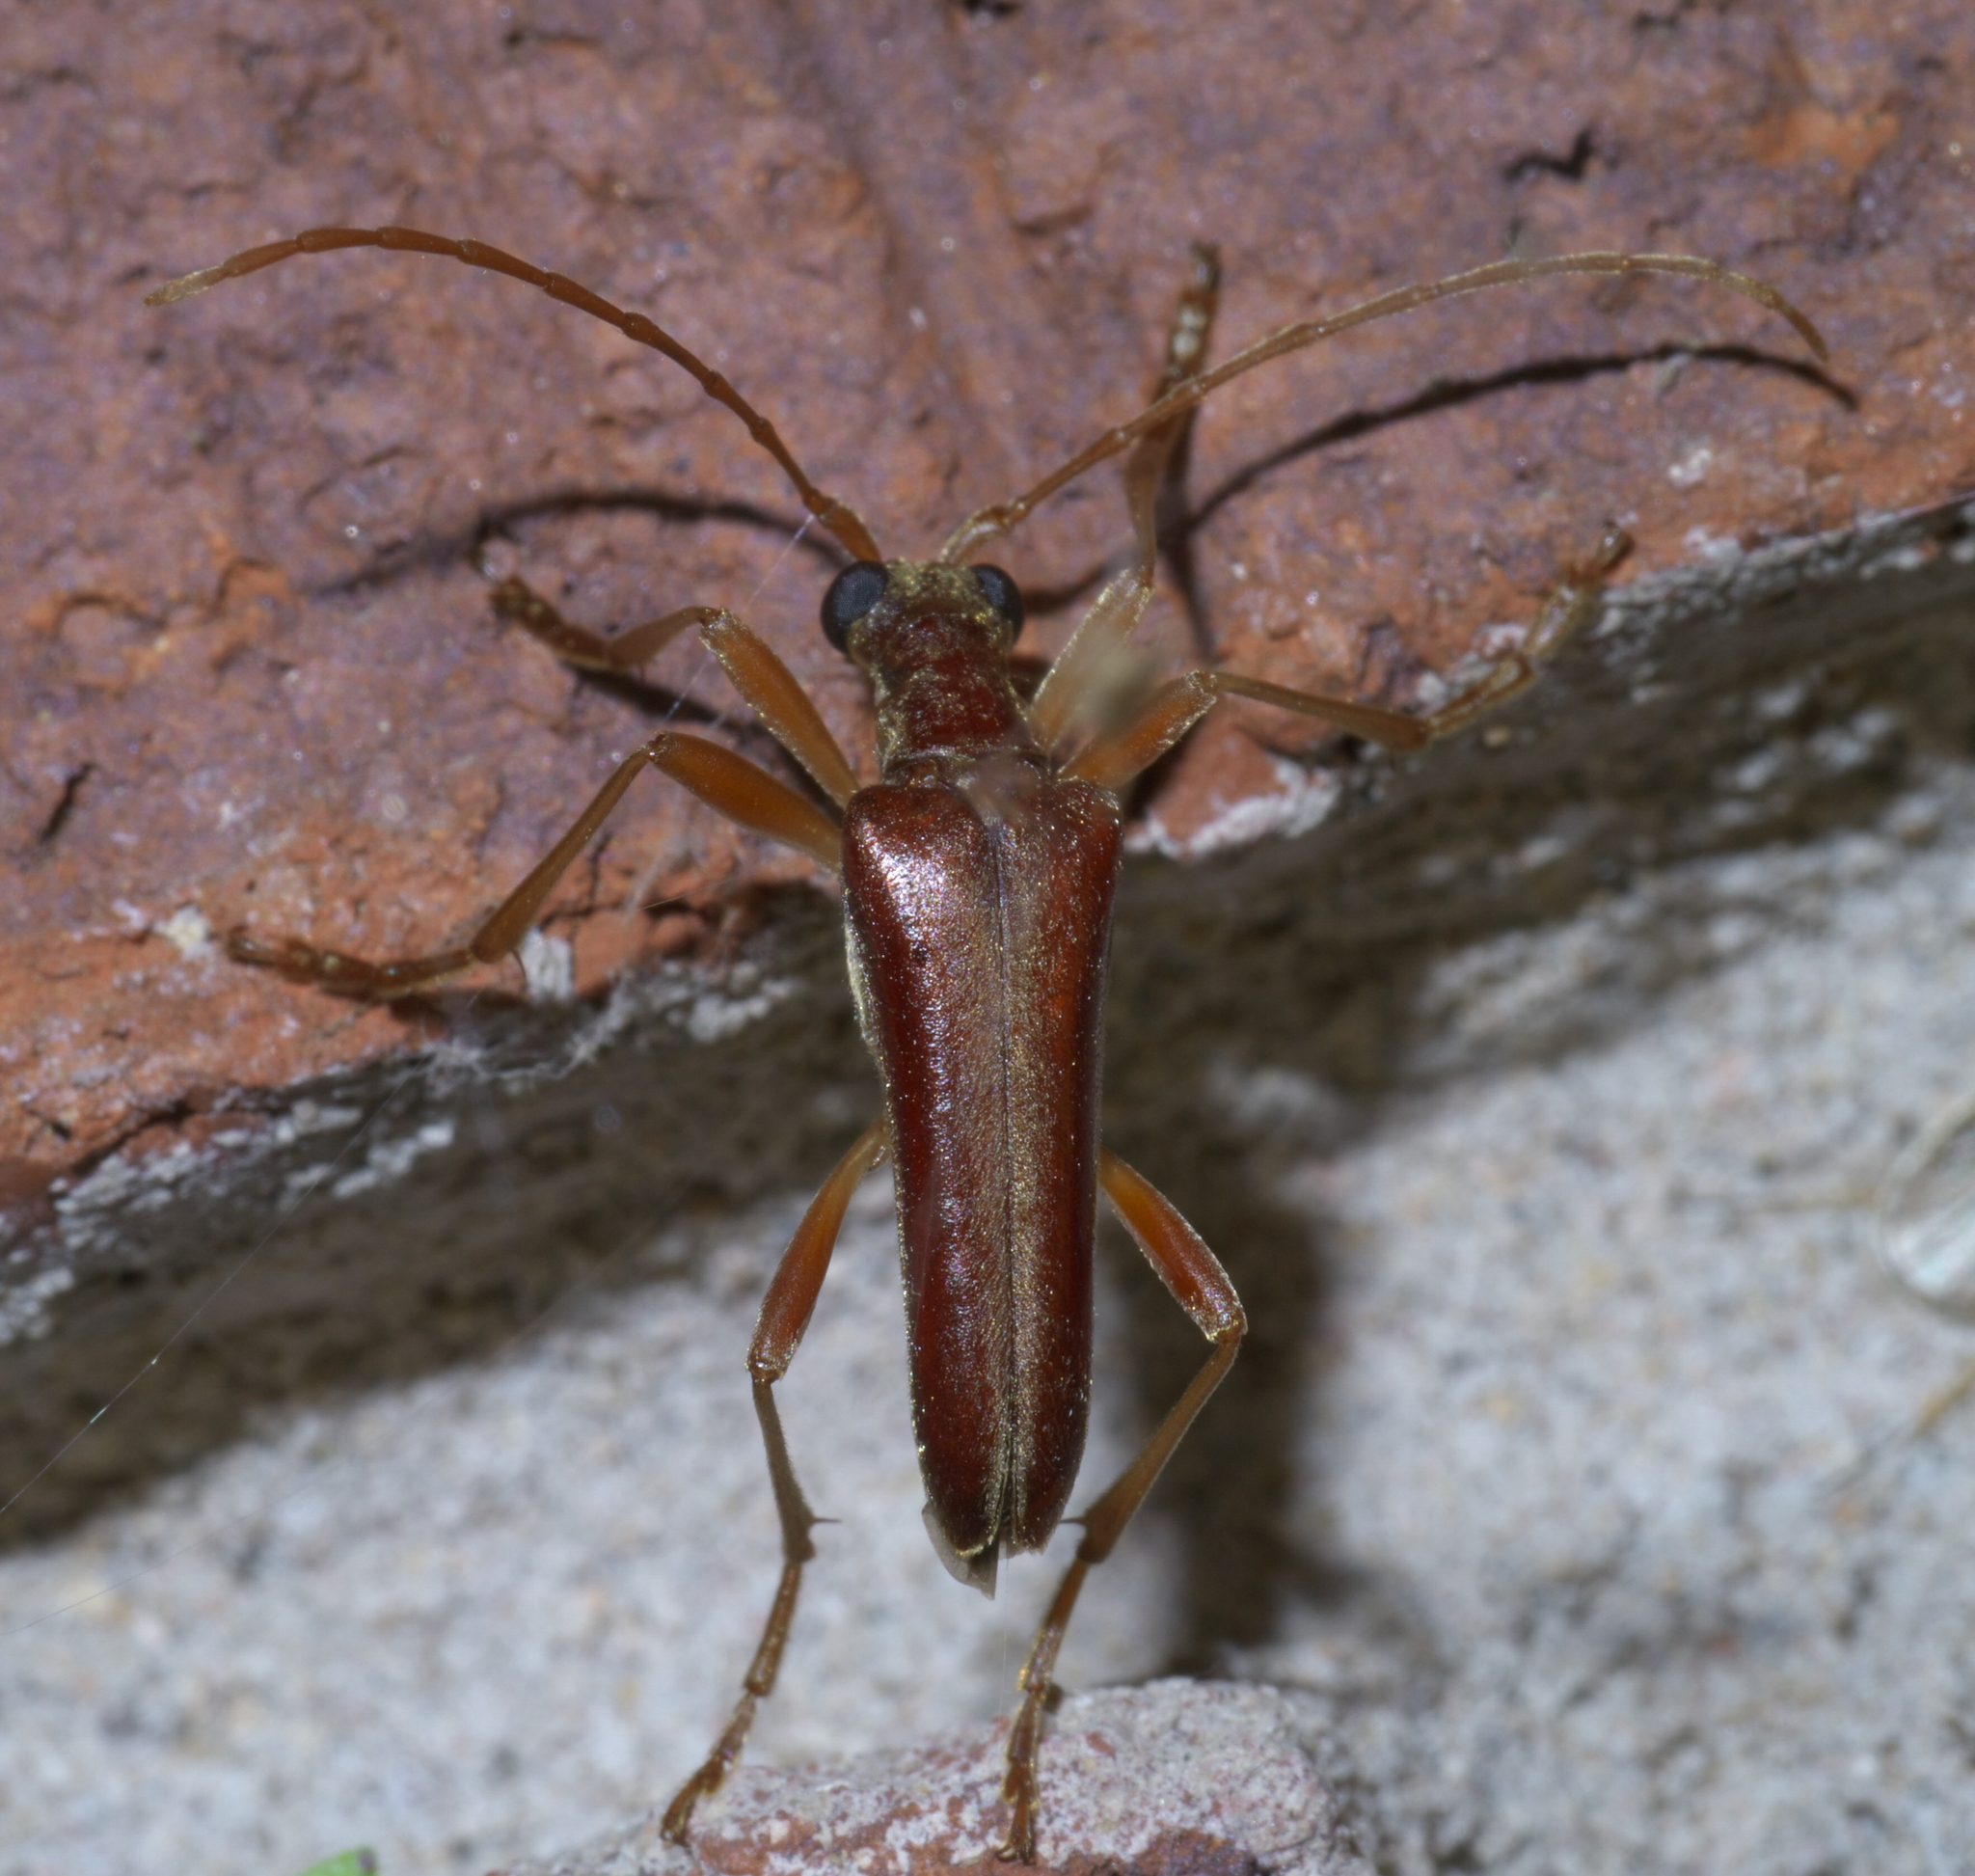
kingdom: Animalia
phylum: Arthropoda
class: Insecta
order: Coleoptera
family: Cerambycidae
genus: Stenocorus
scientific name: Stenocorus cinnamopterus
